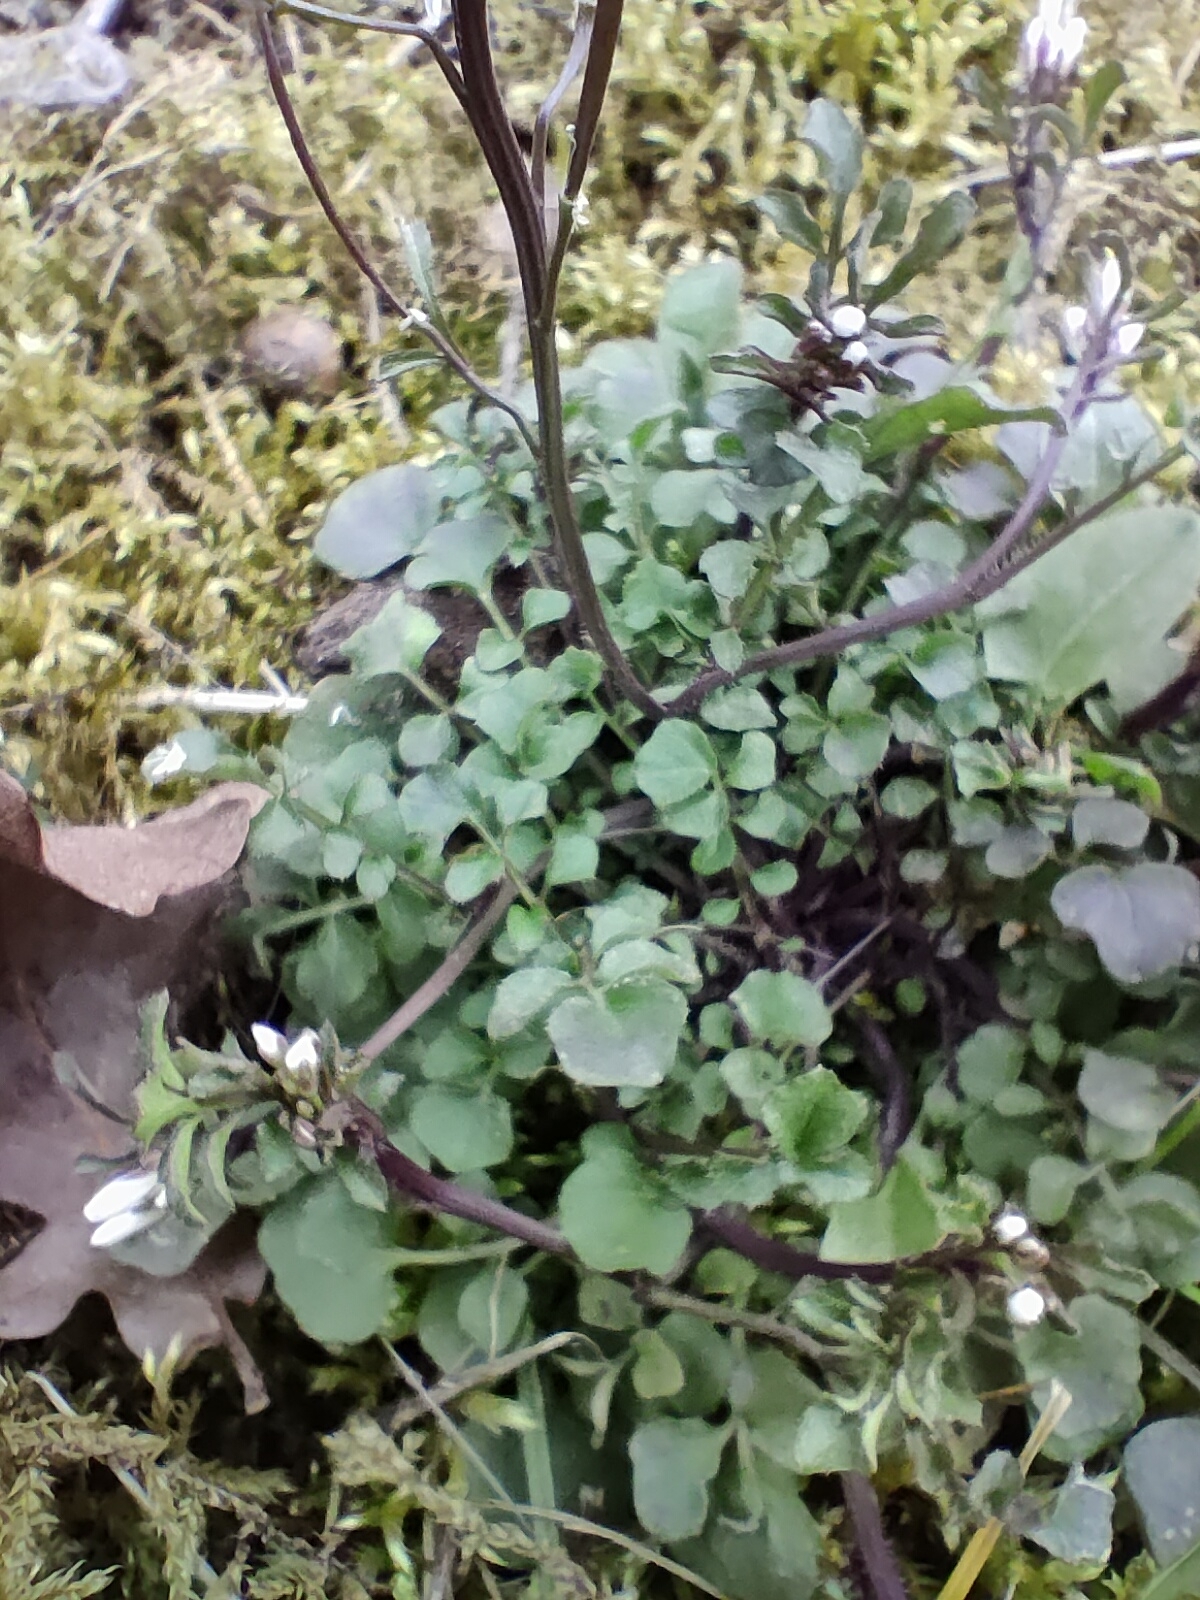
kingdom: Plantae
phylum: Tracheophyta
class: Magnoliopsida
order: Brassicales
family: Brassicaceae
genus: Cardamine
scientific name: Cardamine hirsuta
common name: Hairy bittercress
